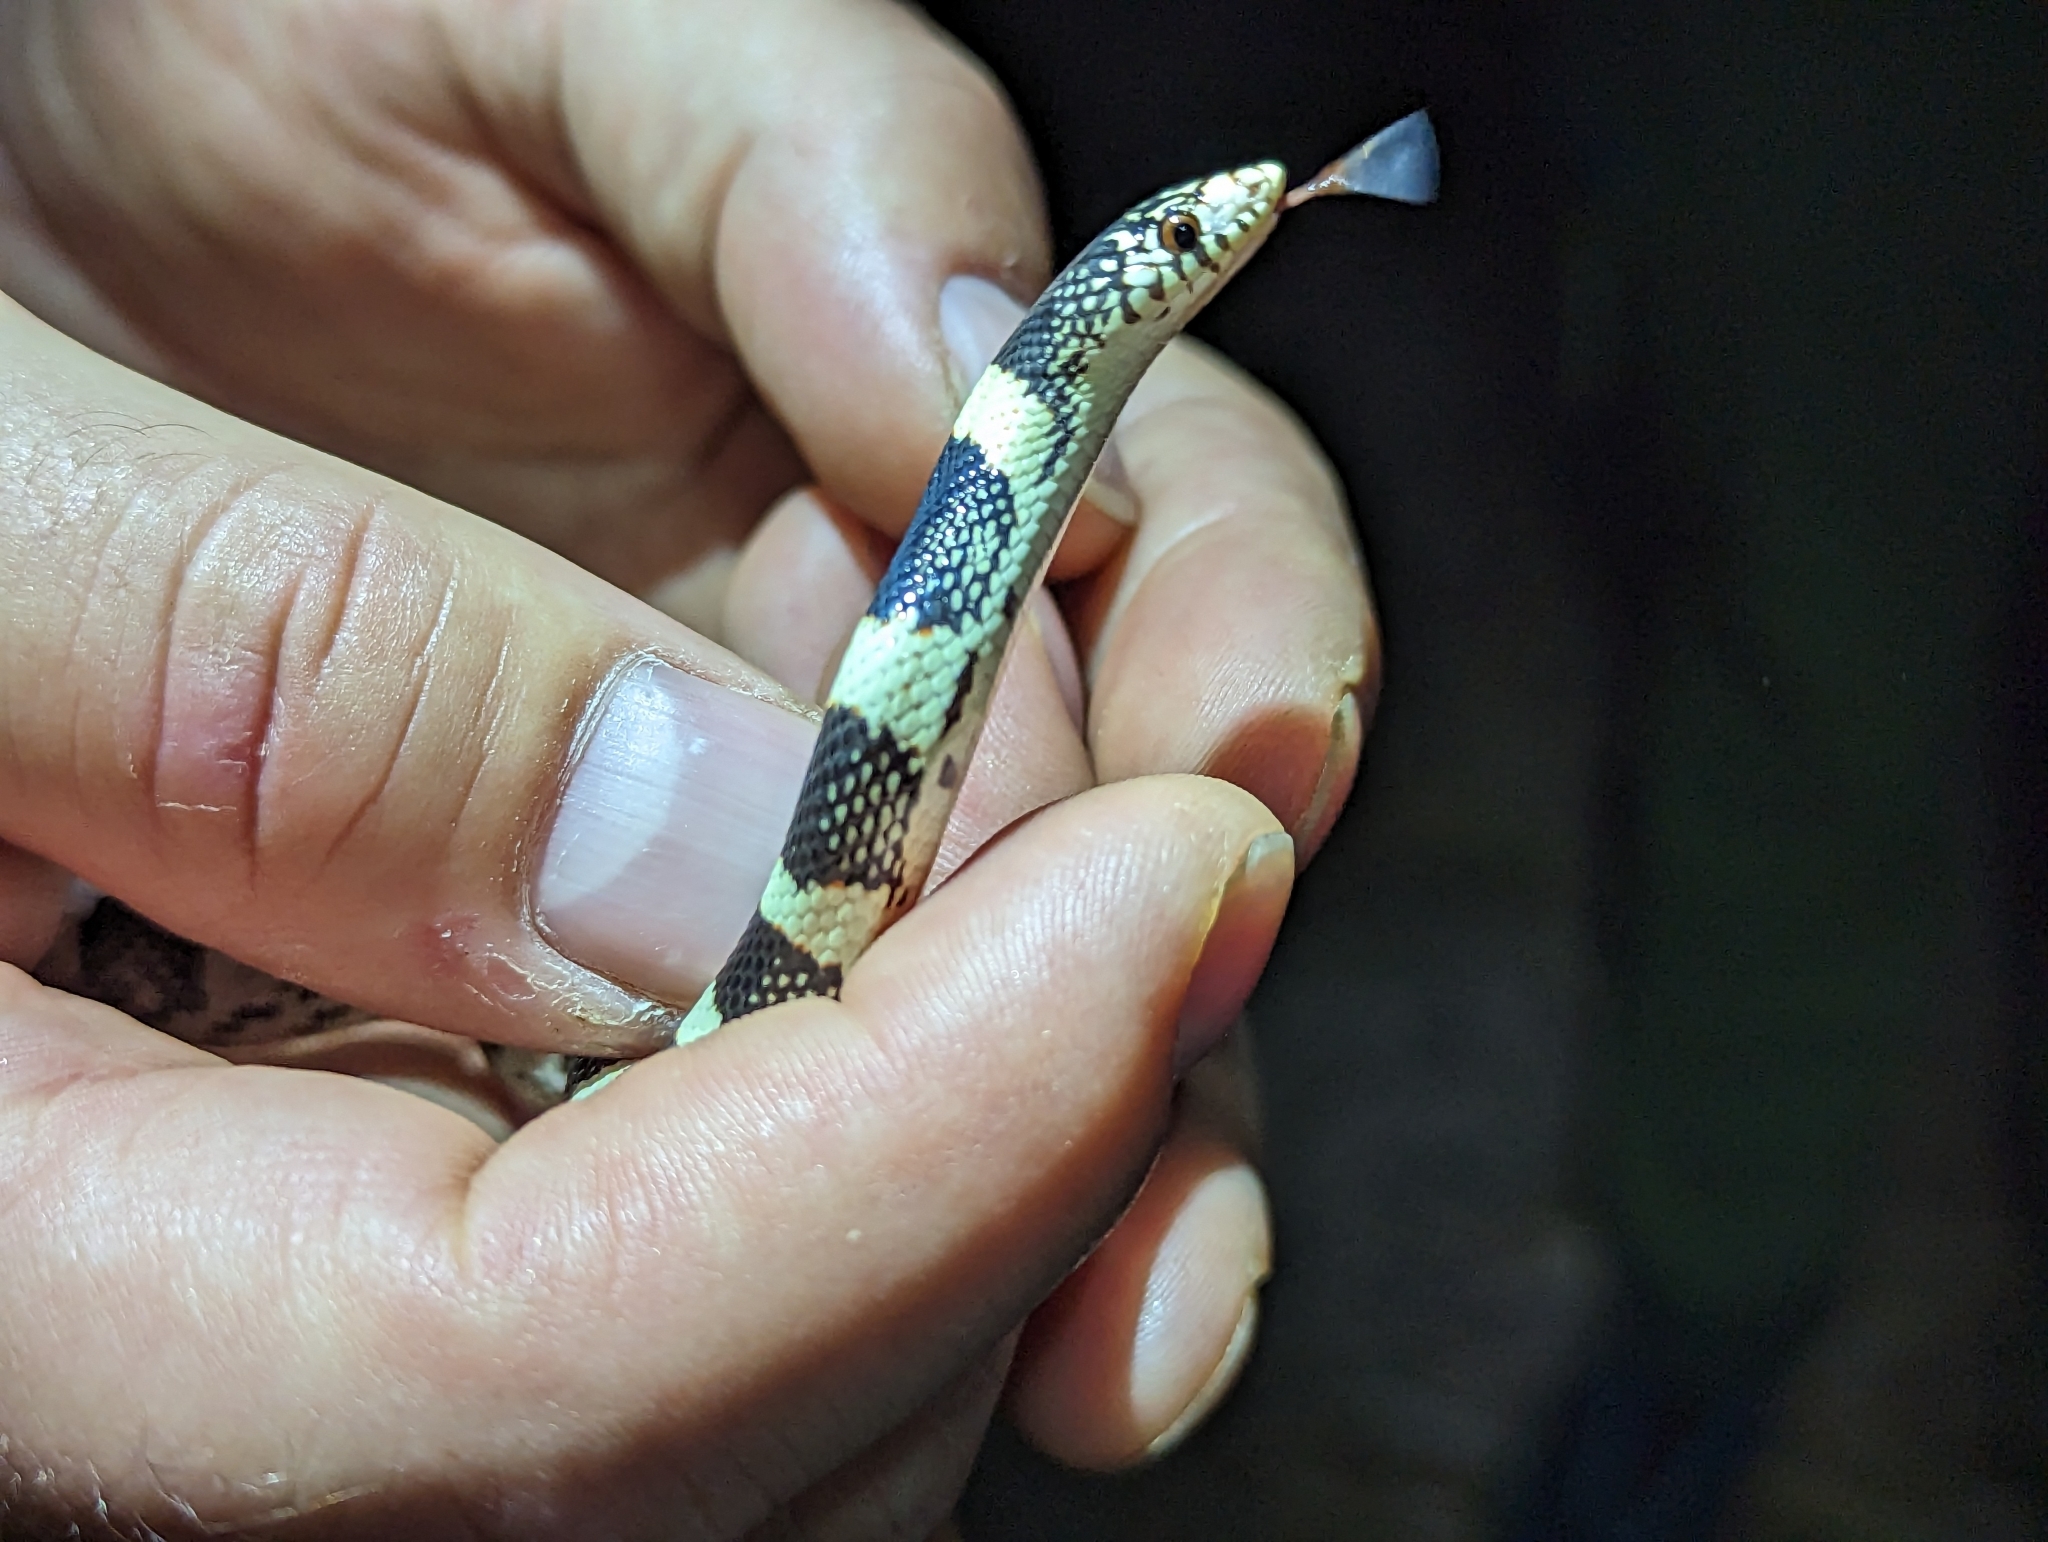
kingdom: Animalia
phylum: Chordata
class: Squamata
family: Colubridae
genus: Rhinocheilus
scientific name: Rhinocheilus lecontei
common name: Longnose snake
